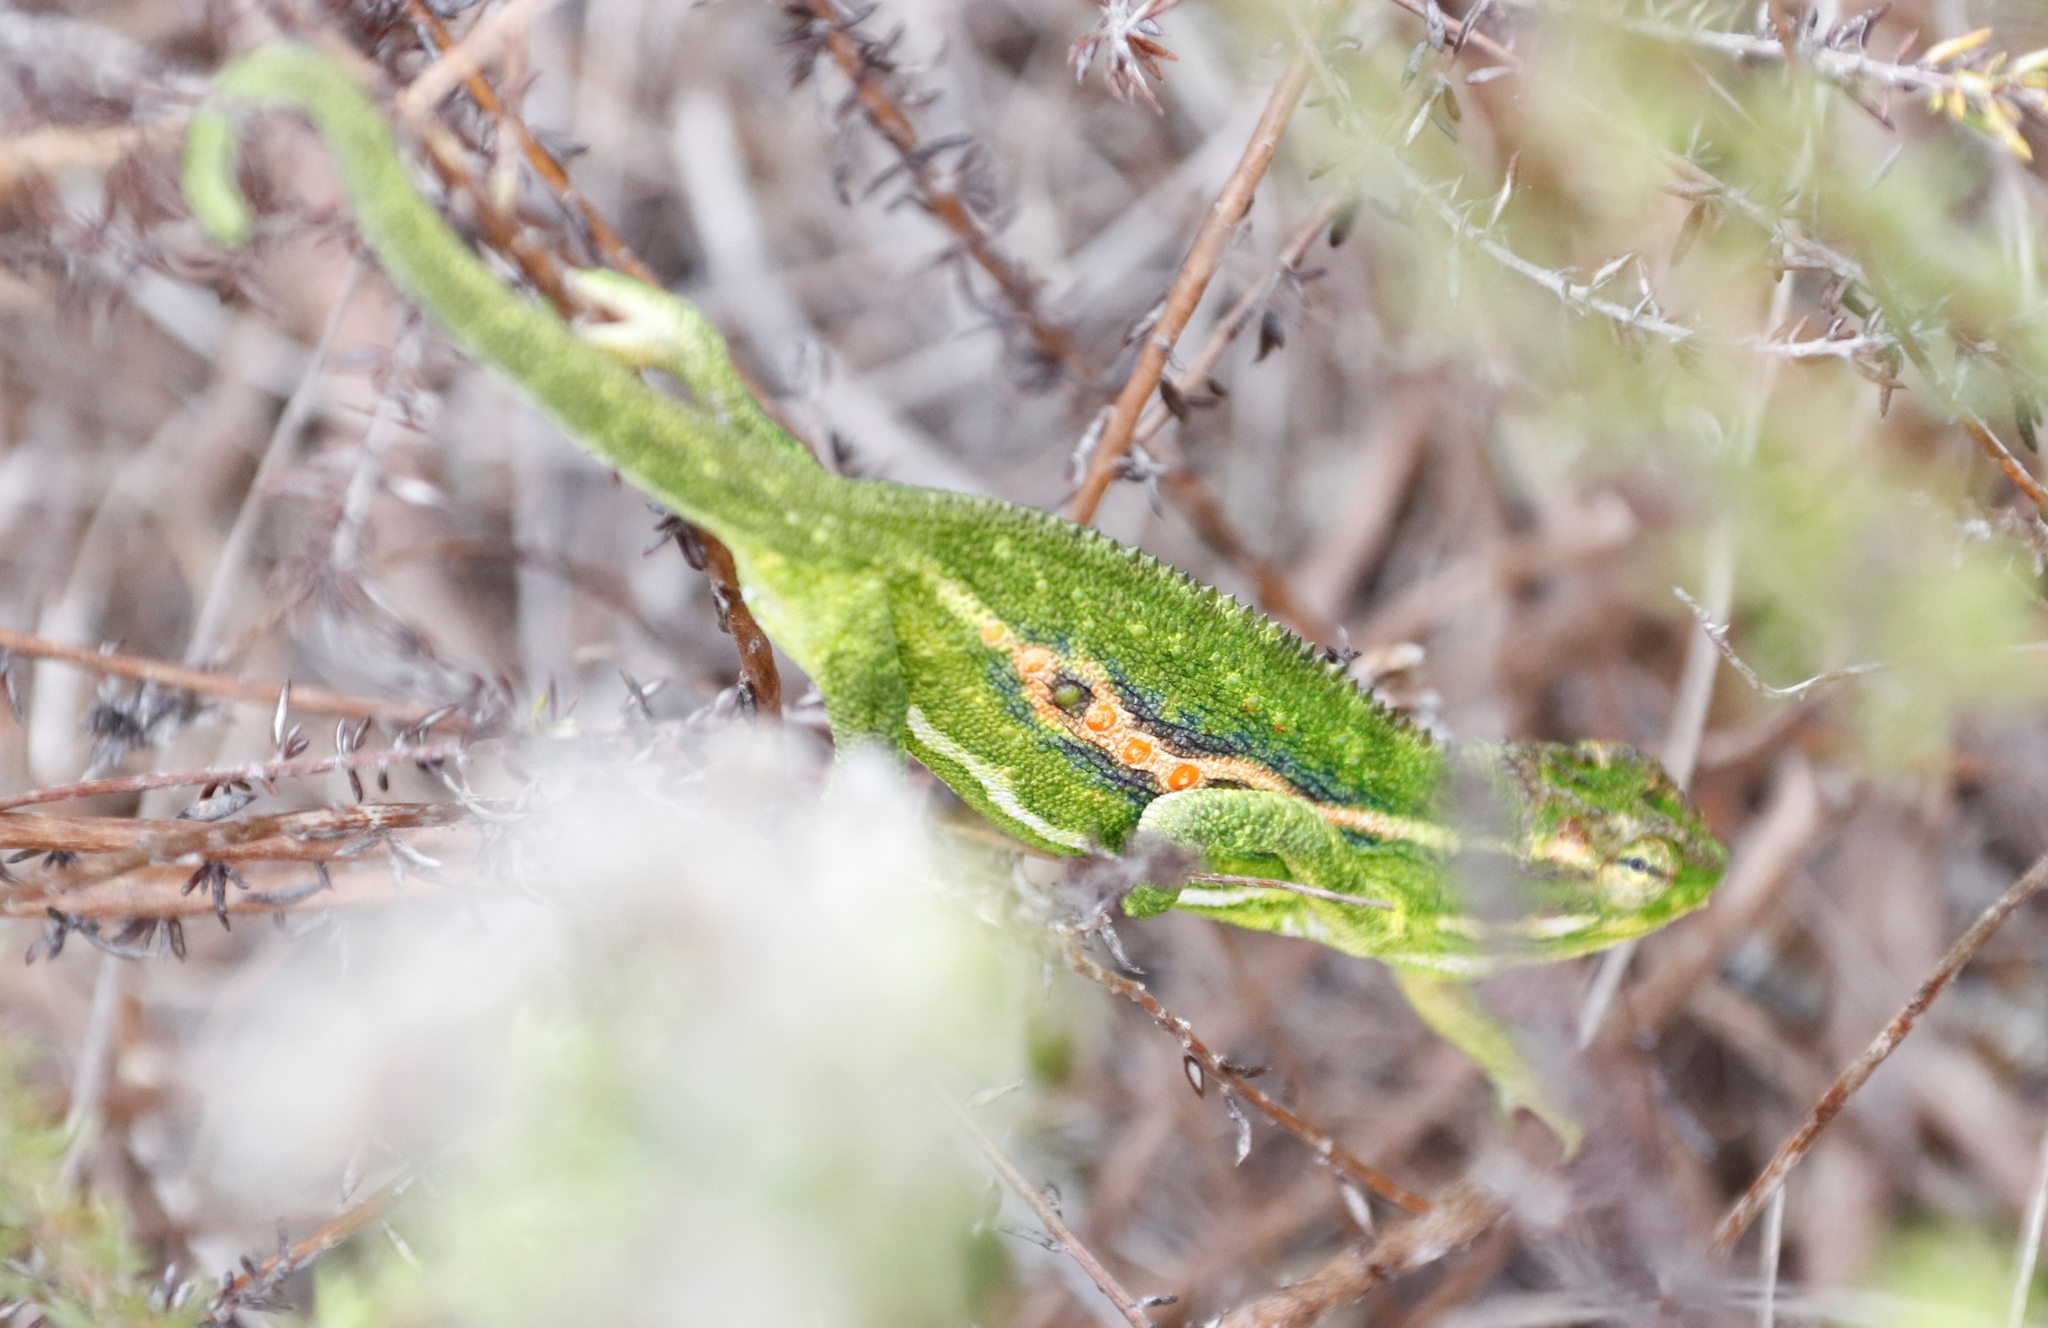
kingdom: Animalia
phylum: Chordata
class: Squamata
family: Chamaeleonidae
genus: Bradypodion
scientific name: Bradypodion pumilum
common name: Cape dwarf chameleon
